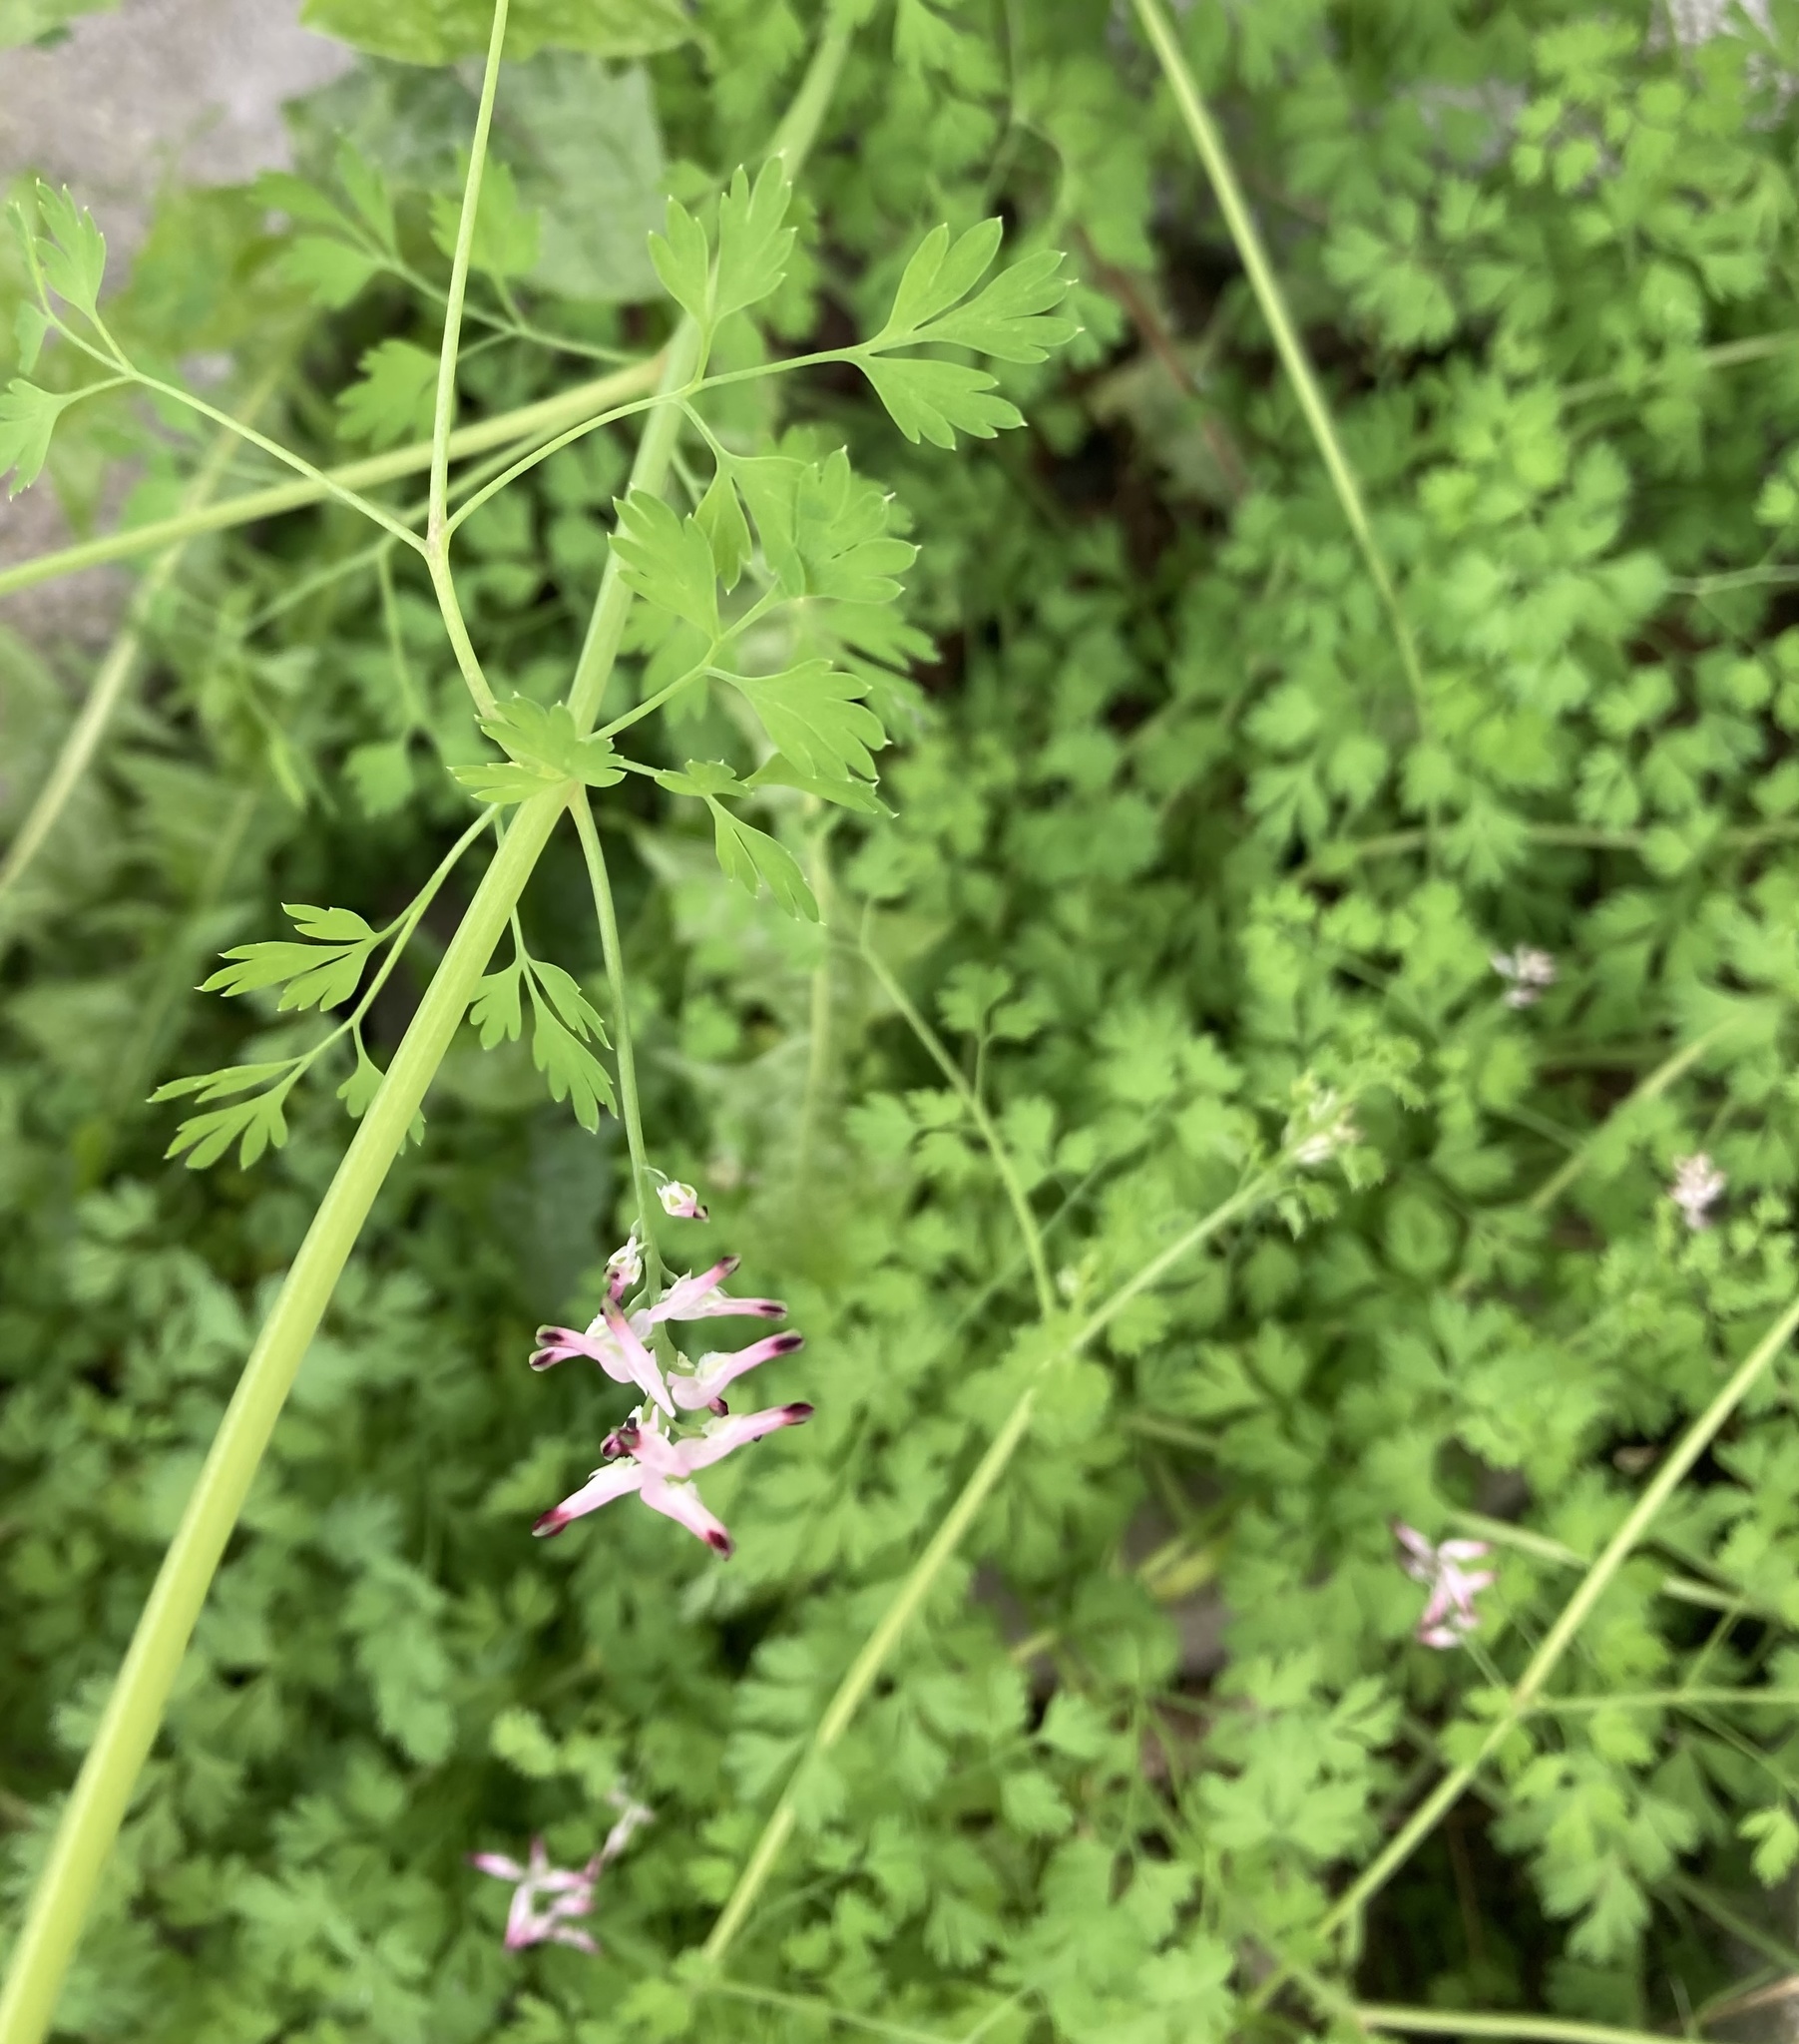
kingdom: Plantae
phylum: Tracheophyta
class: Magnoliopsida
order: Ranunculales
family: Papaveraceae
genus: Fumaria
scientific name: Fumaria muralis
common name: Common ramping-fumitory
